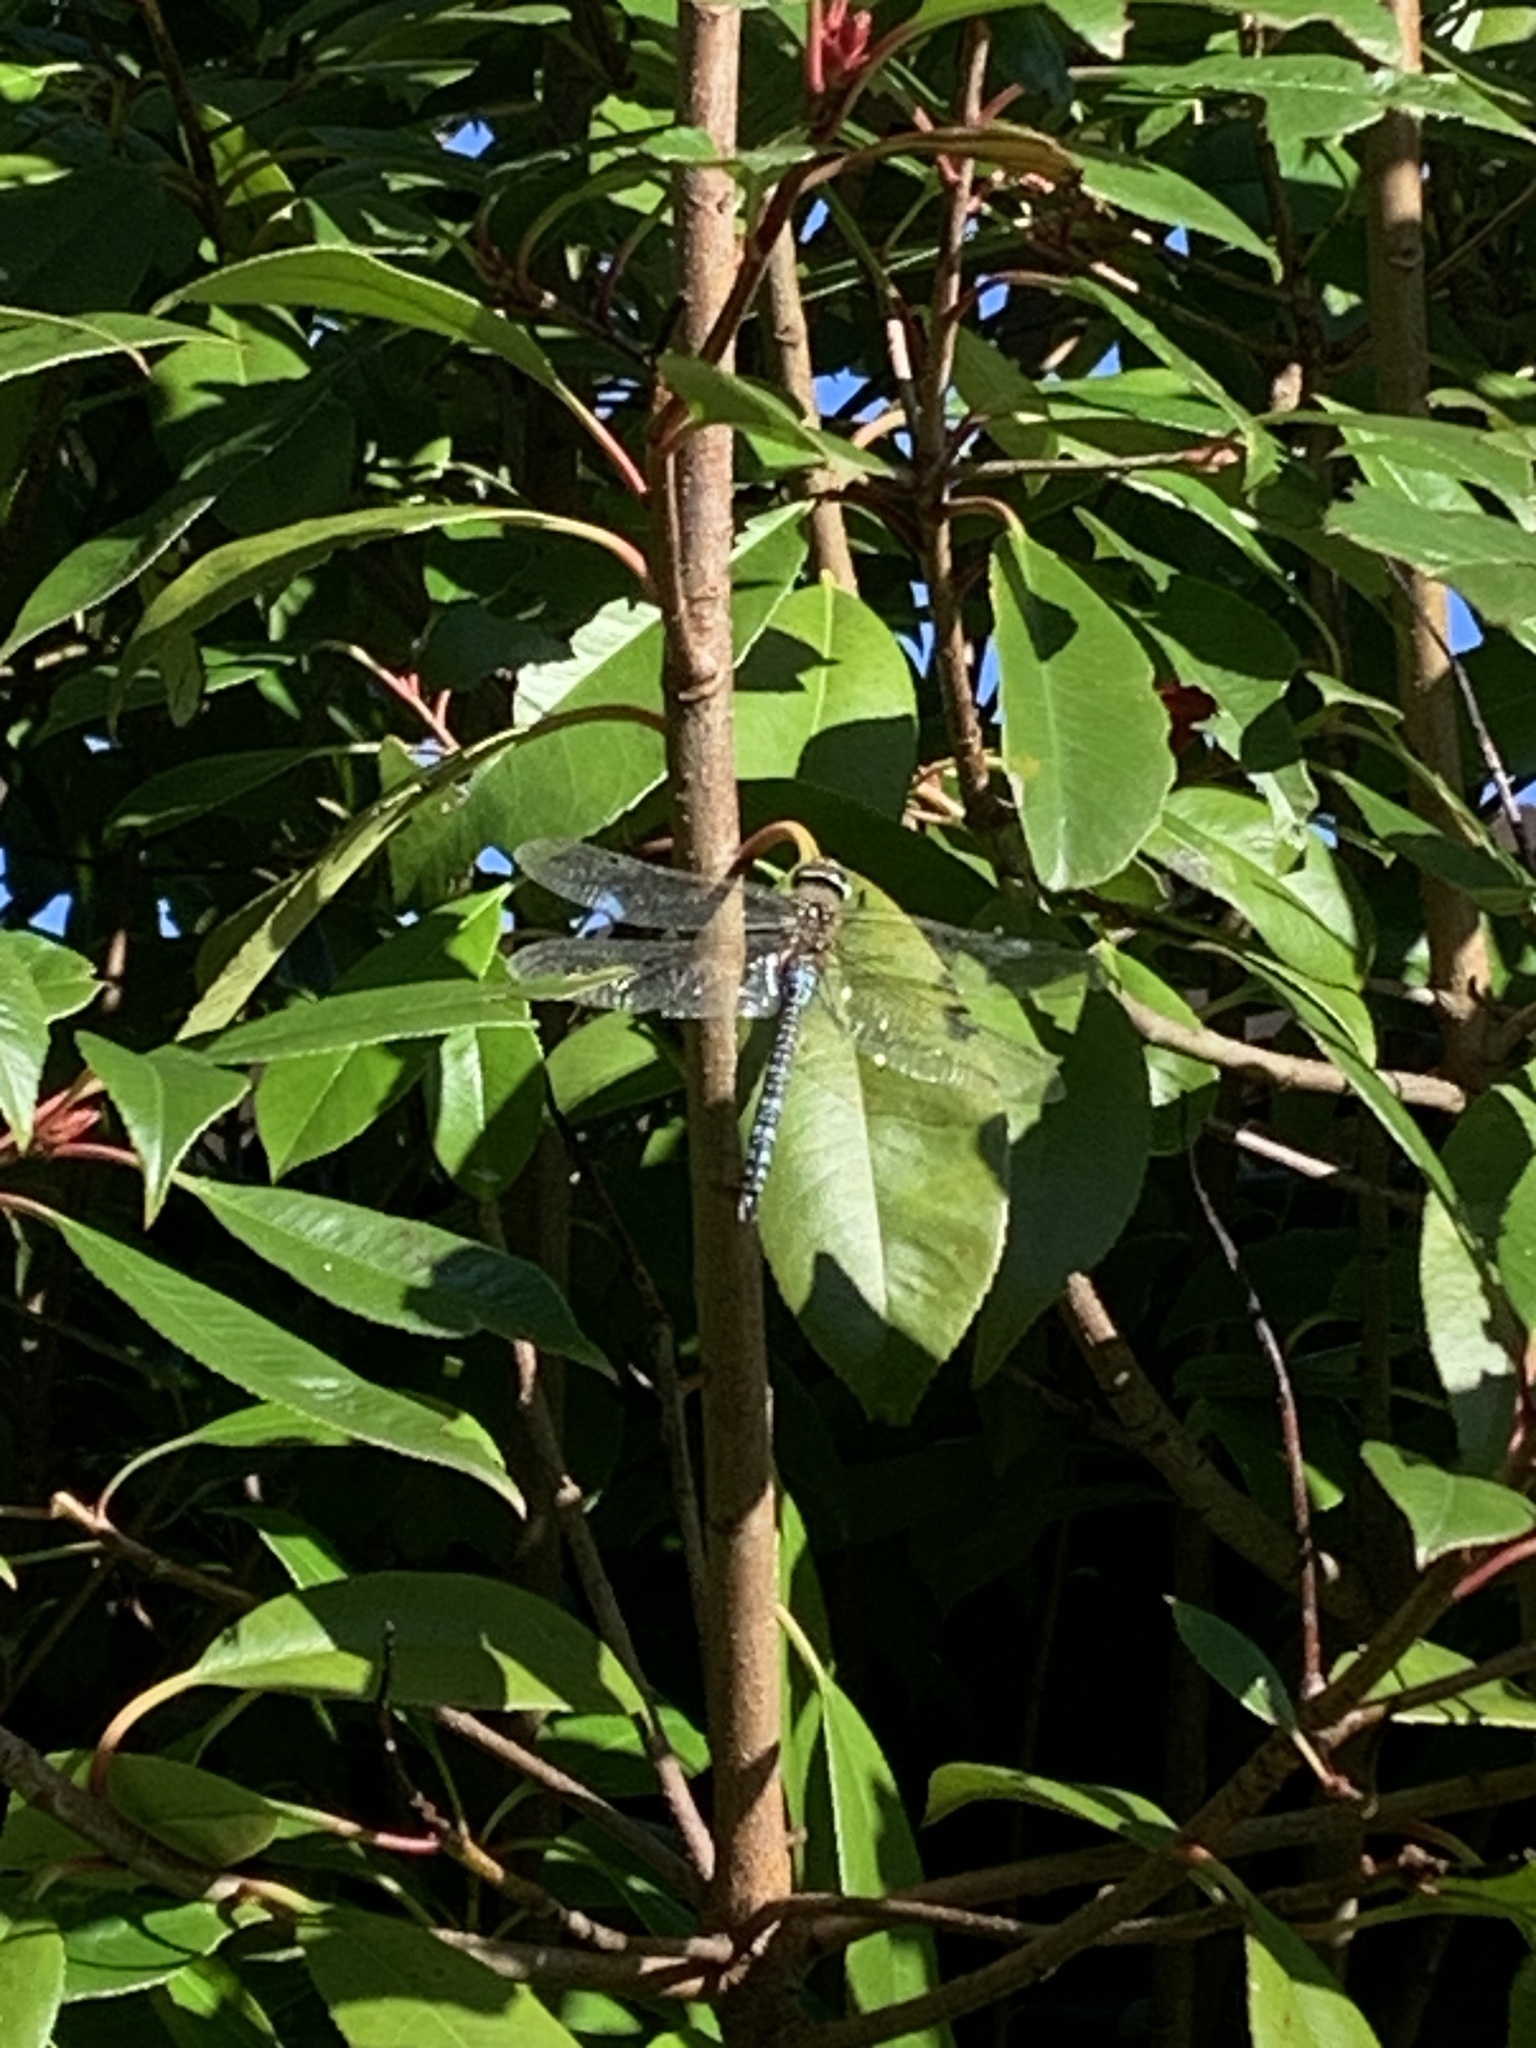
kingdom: Animalia
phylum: Arthropoda
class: Insecta
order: Odonata
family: Aeshnidae
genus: Aeshna
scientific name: Aeshna mixta
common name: Migrant hawker
